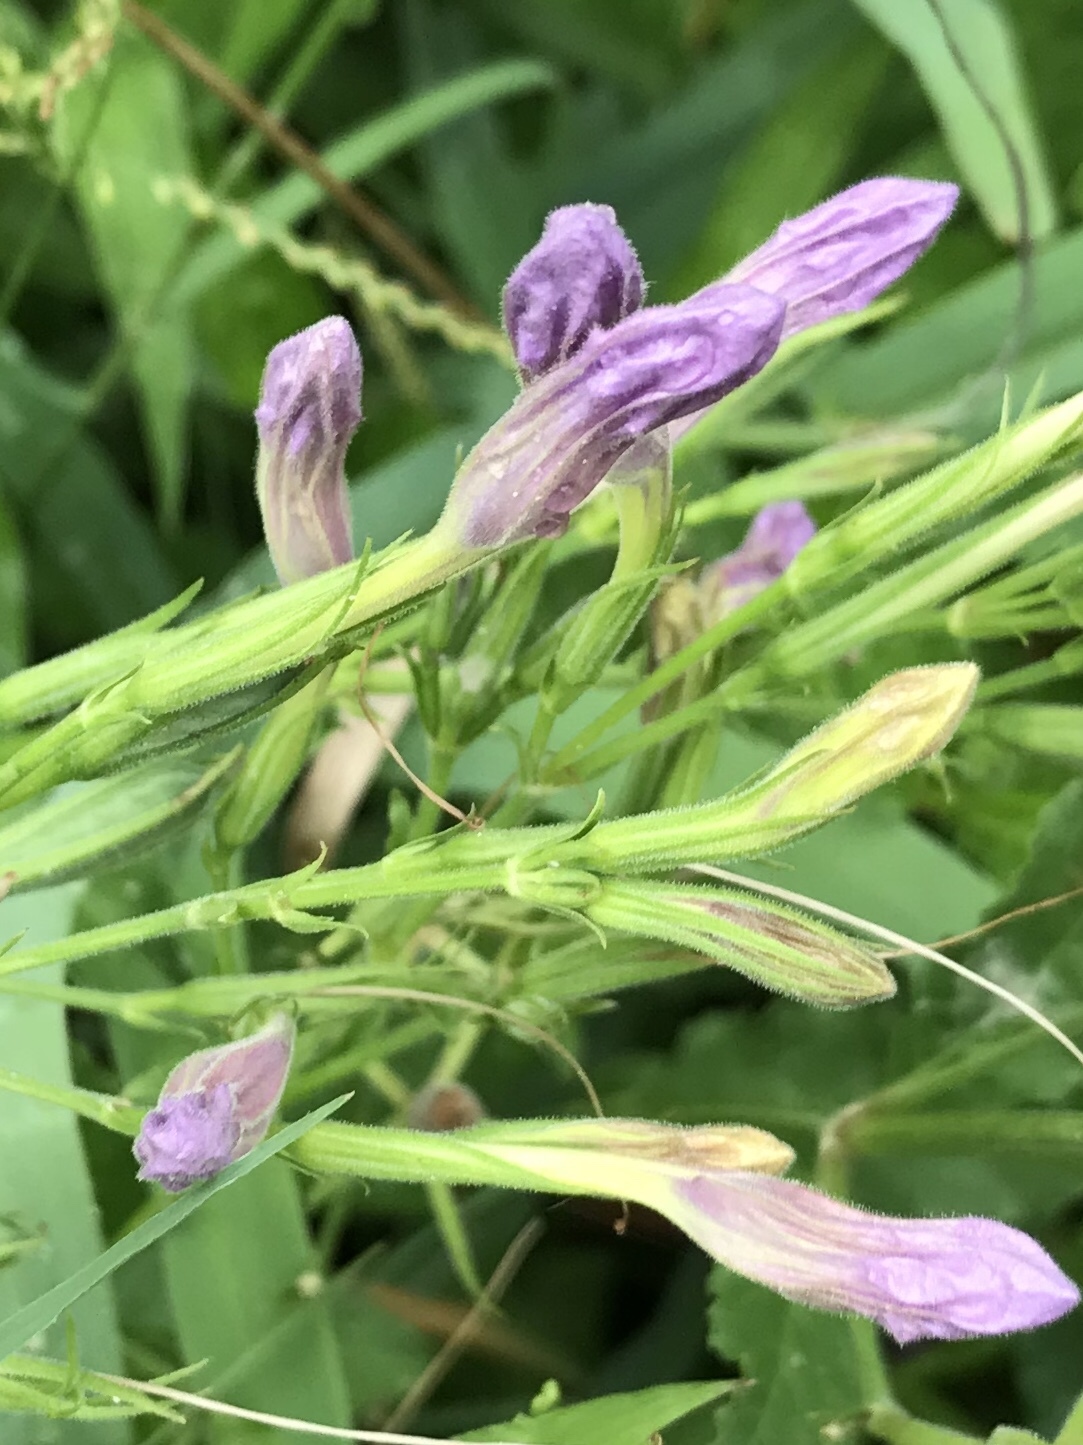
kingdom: Plantae
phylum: Tracheophyta
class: Magnoliopsida
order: Lamiales
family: Acanthaceae
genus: Ruellia
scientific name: Ruellia ciliatiflora
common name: Hairyflower wild petunia
